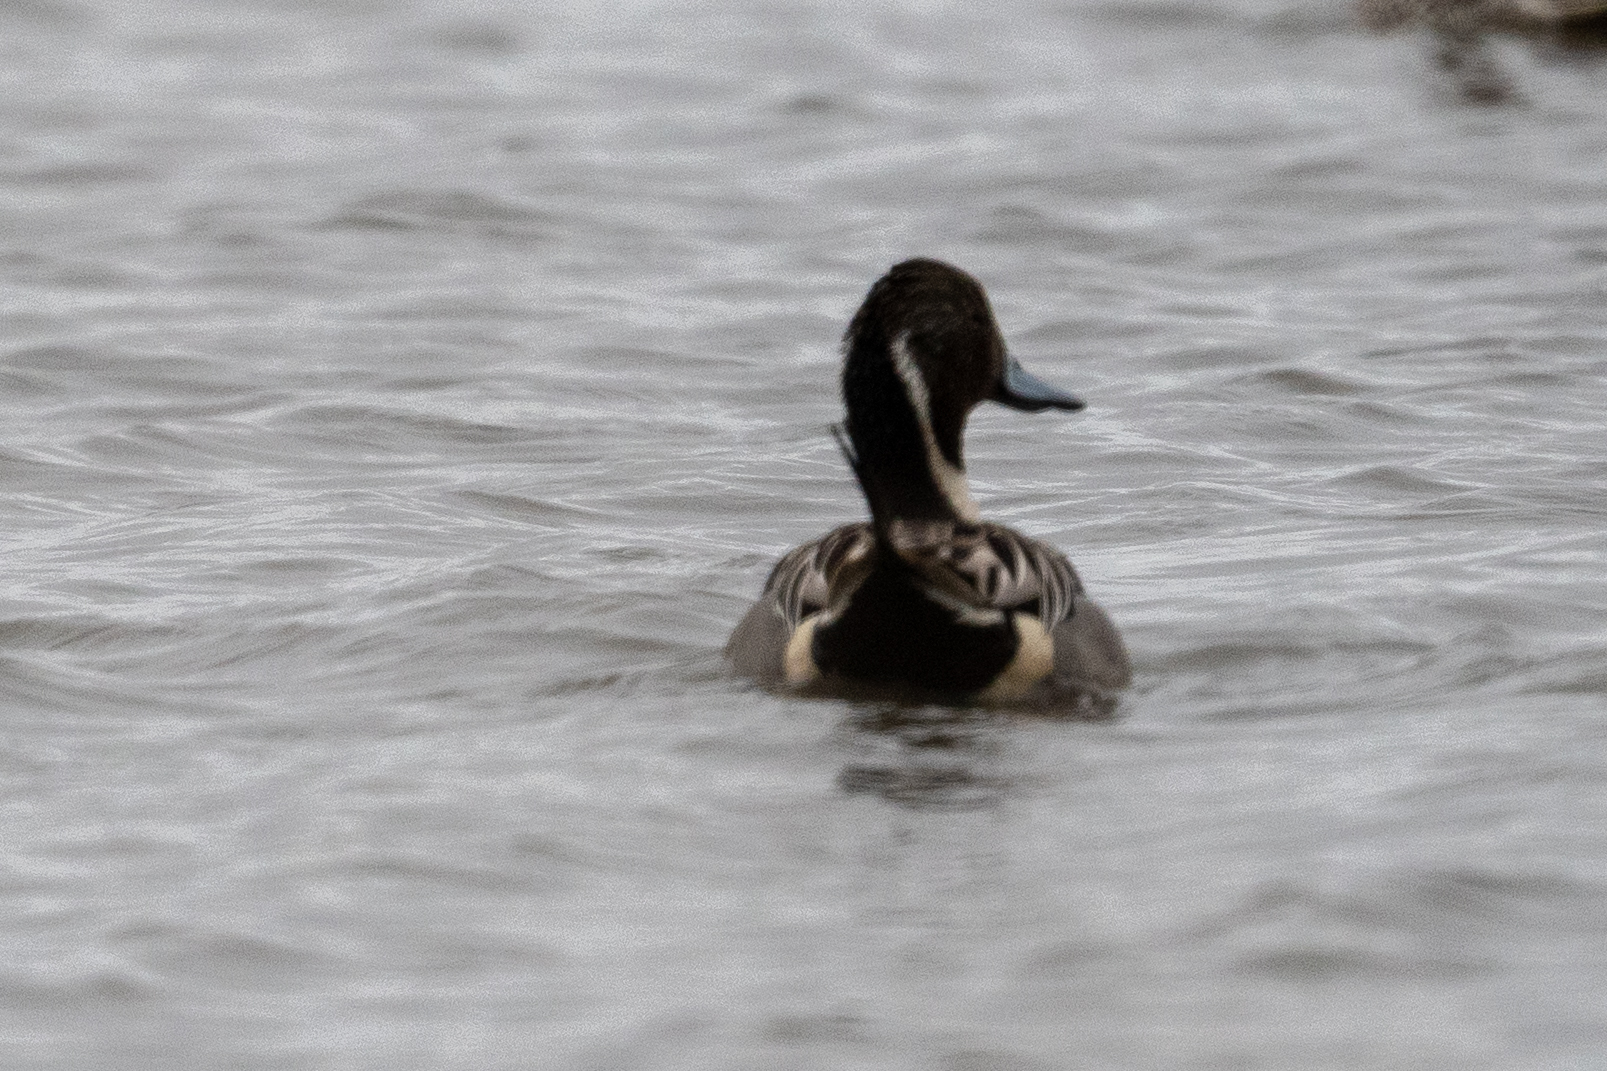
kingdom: Animalia
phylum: Chordata
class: Aves
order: Anseriformes
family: Anatidae
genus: Anas
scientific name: Anas acuta
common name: Northern pintail
